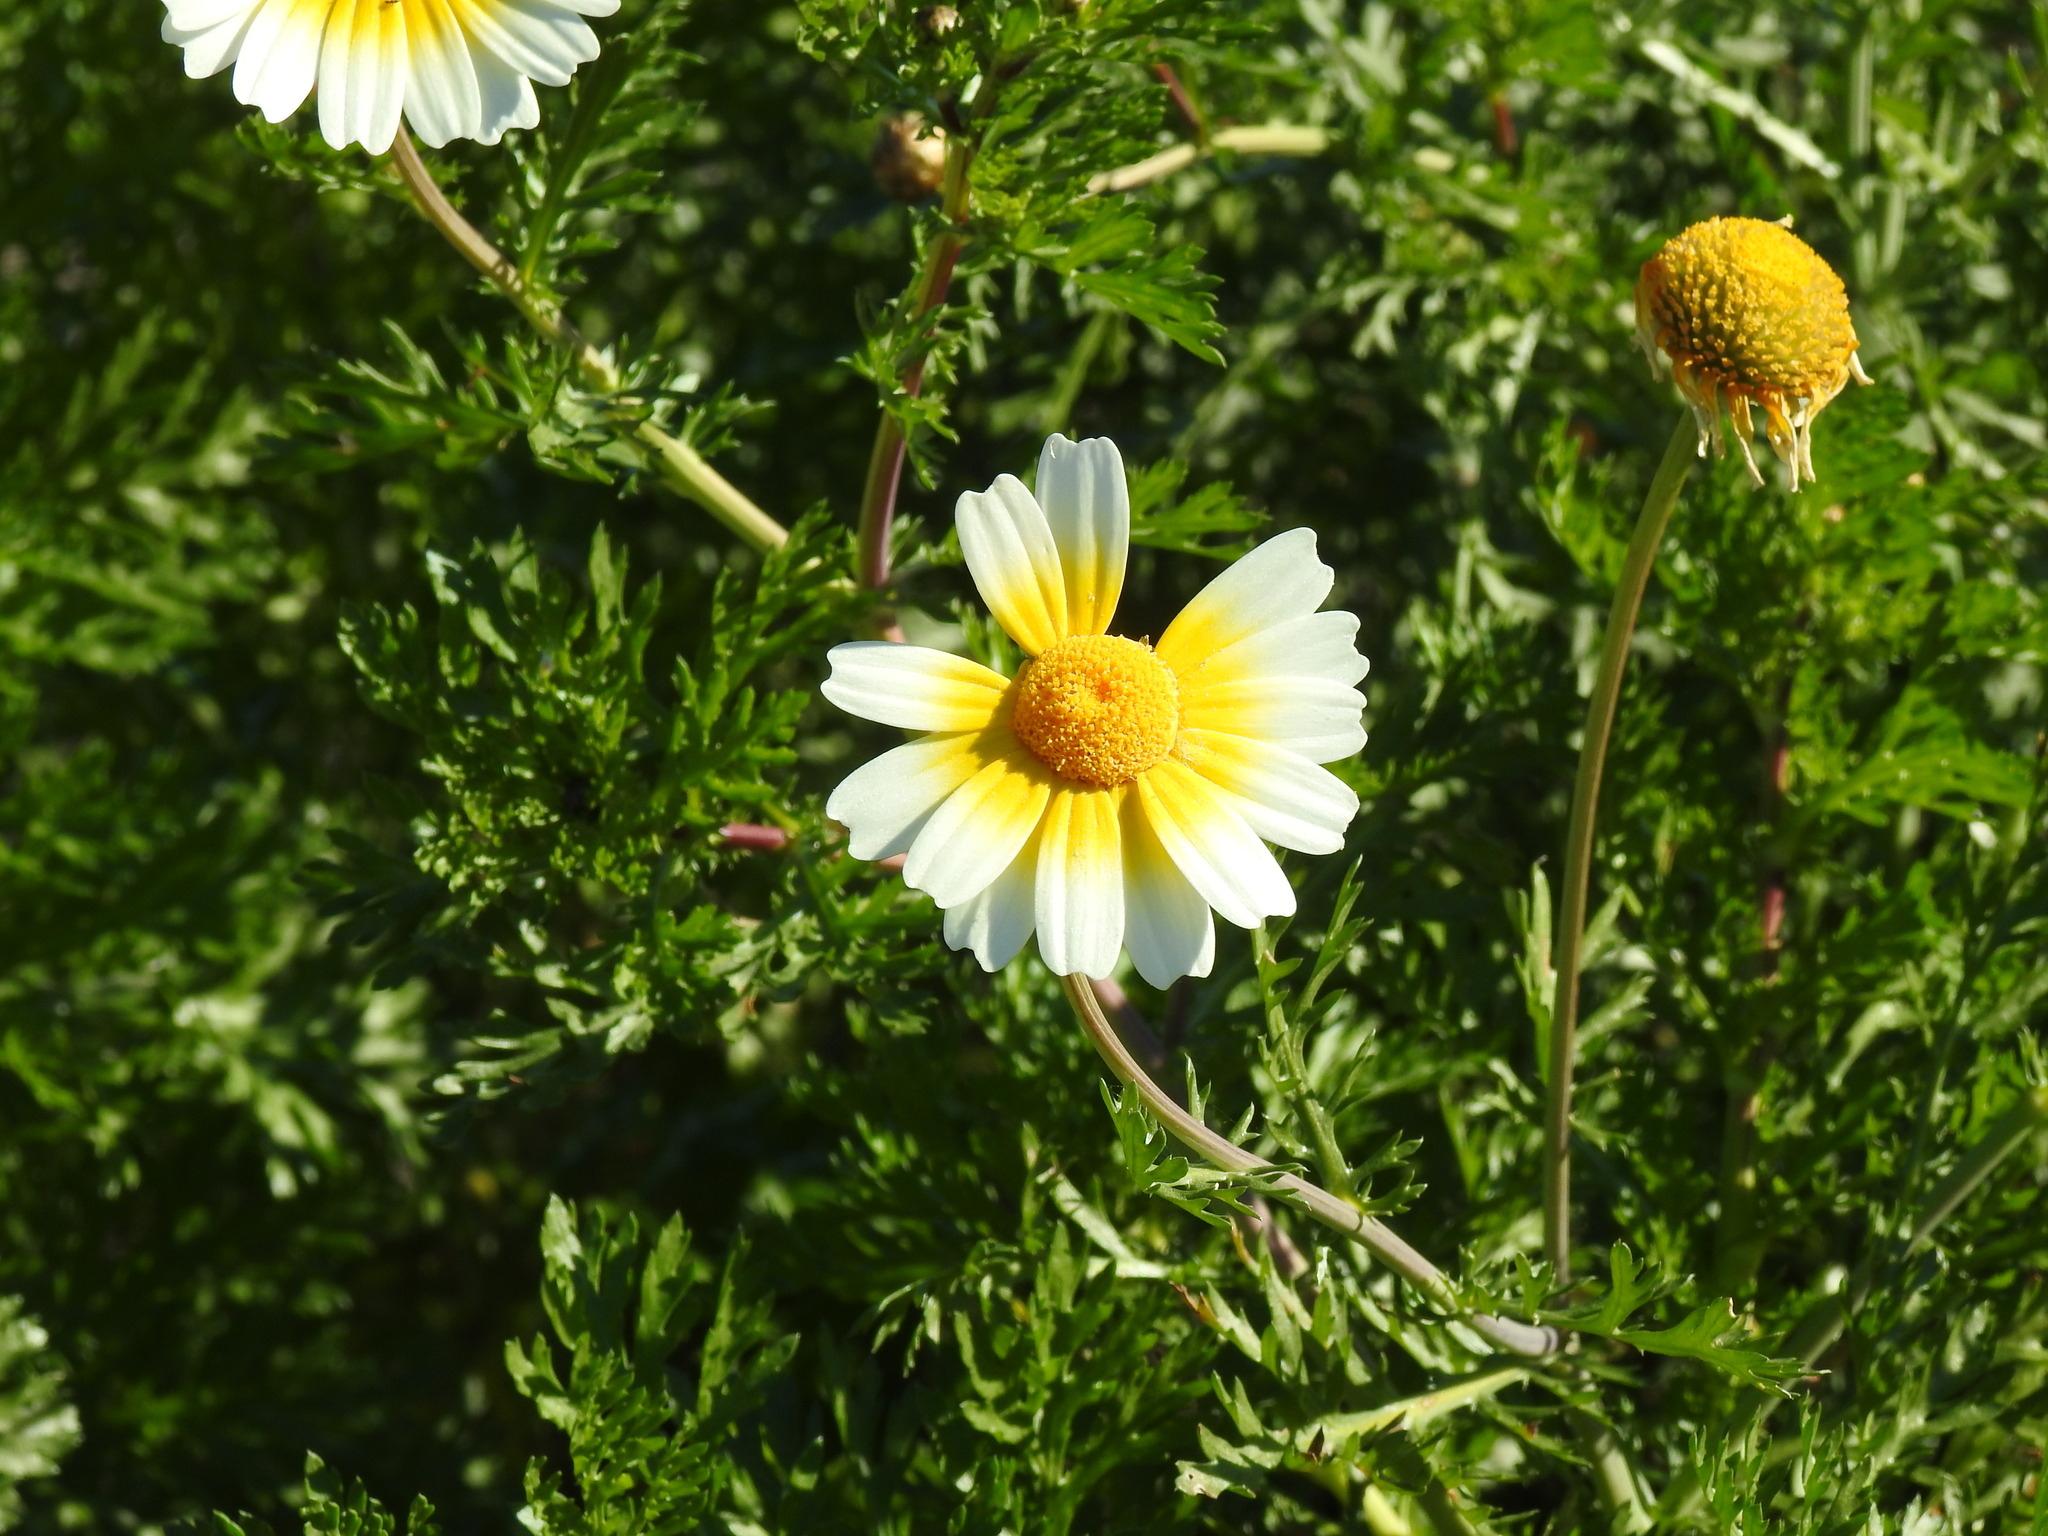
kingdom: Plantae
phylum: Tracheophyta
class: Magnoliopsida
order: Asterales
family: Asteraceae
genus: Glebionis
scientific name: Glebionis coronaria
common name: Crowndaisy
